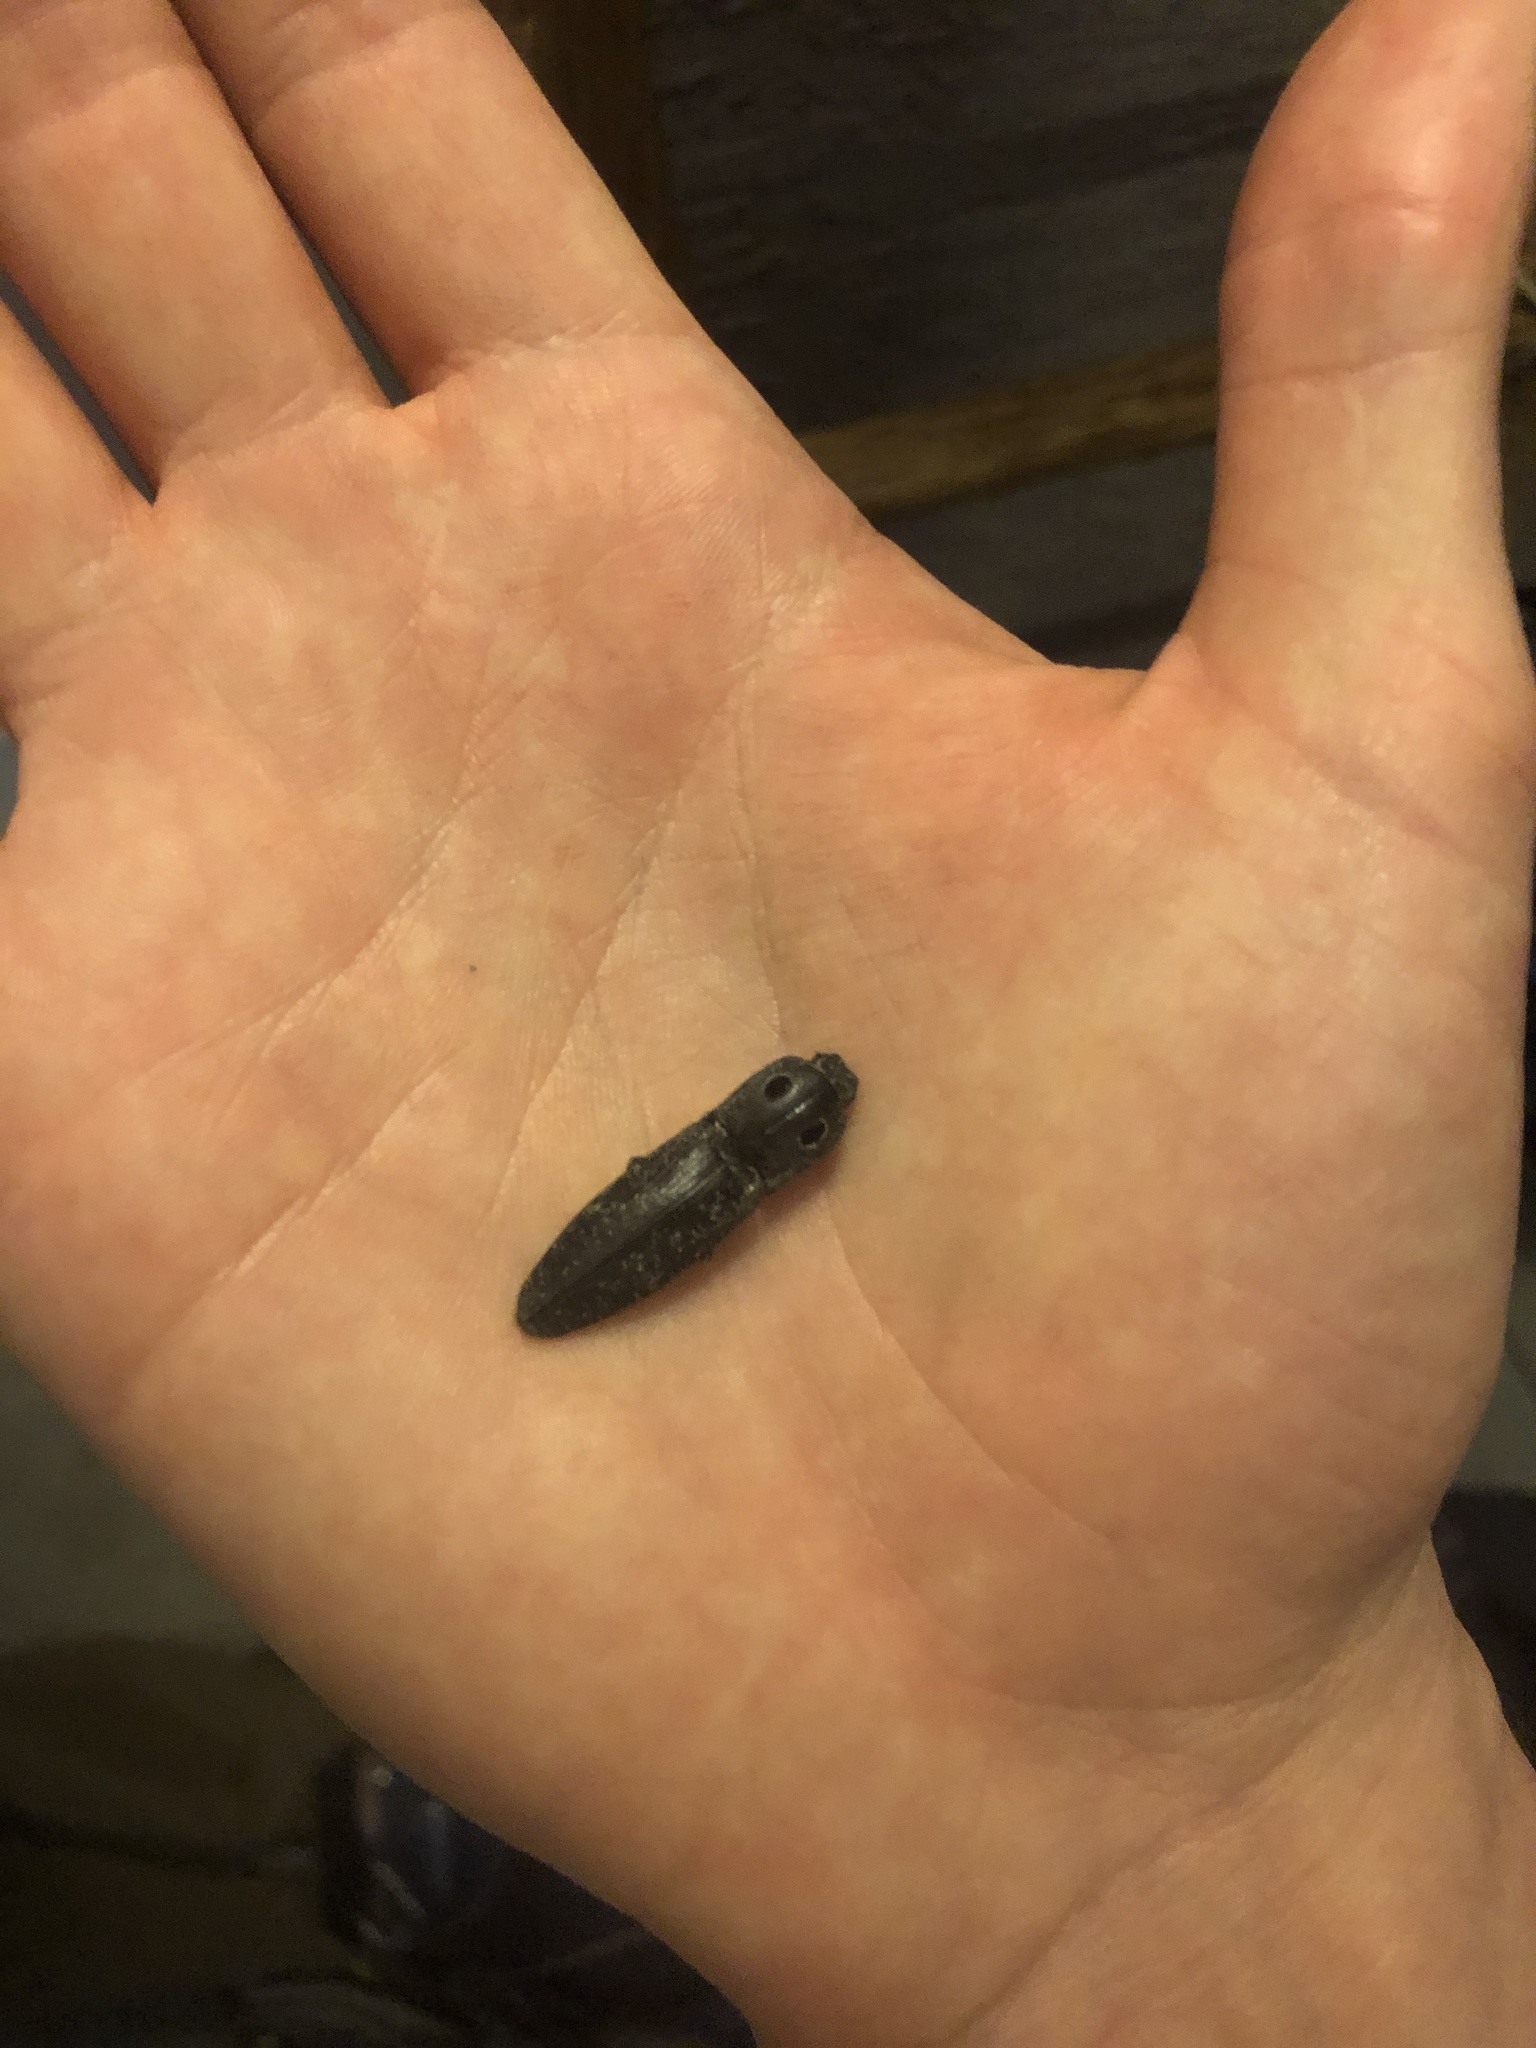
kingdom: Animalia
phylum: Arthropoda
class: Insecta
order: Coleoptera
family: Elateridae
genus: Alaus
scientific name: Alaus melanops
